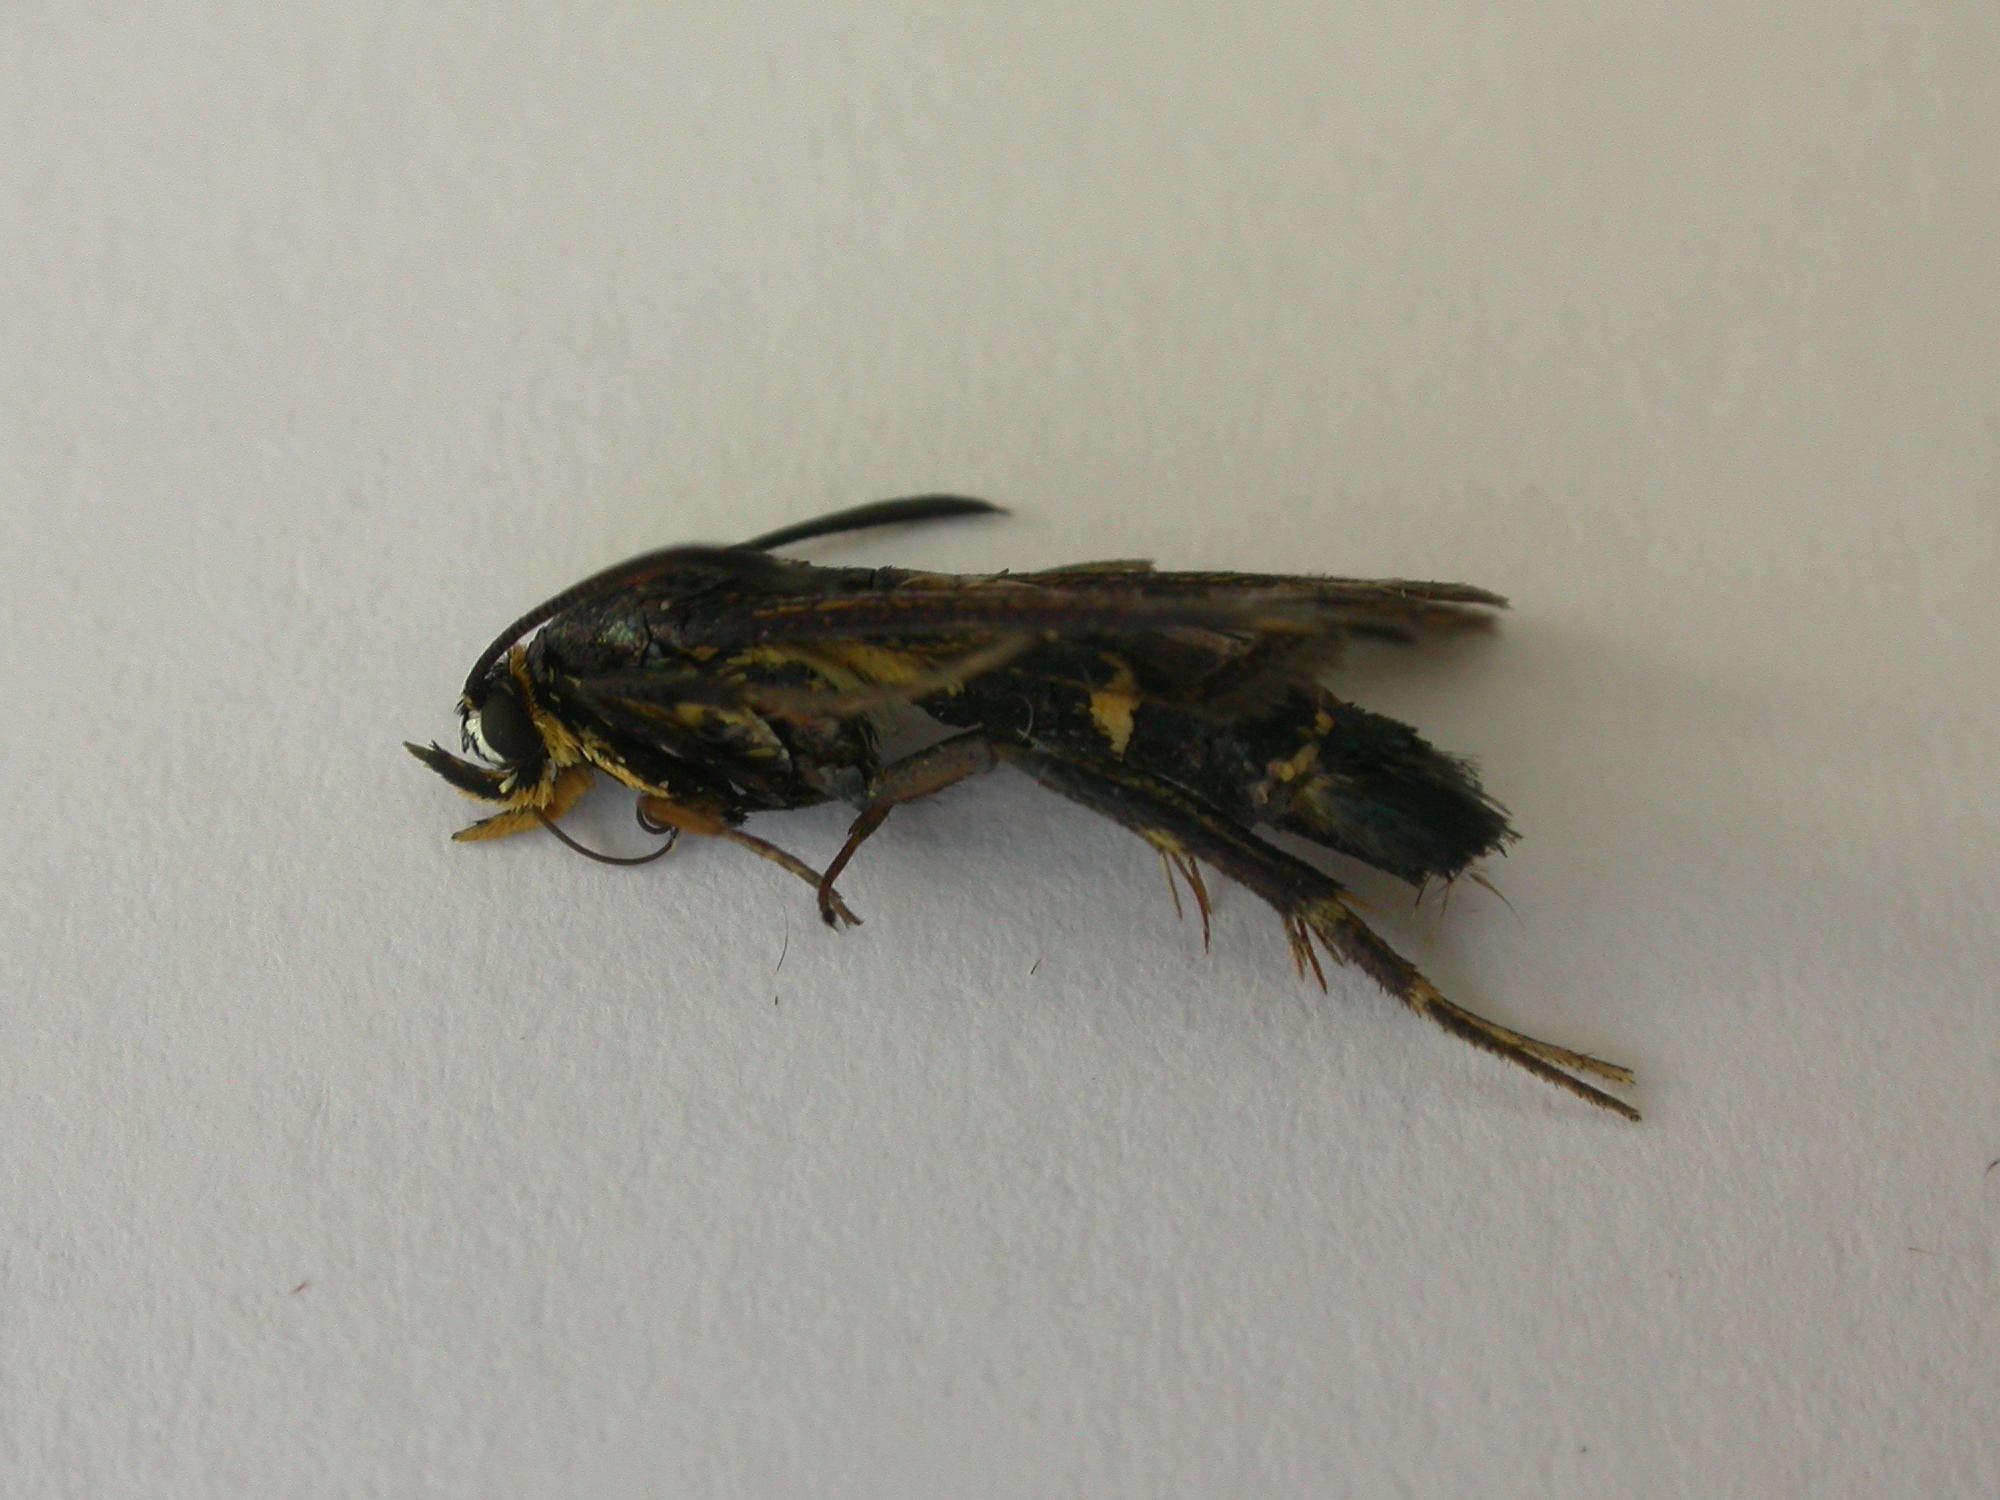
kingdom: Animalia
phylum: Arthropoda
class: Insecta
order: Lepidoptera
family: Sesiidae
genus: Synanthedon
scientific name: Synanthedon tipuliformis
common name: Currant clearwing
